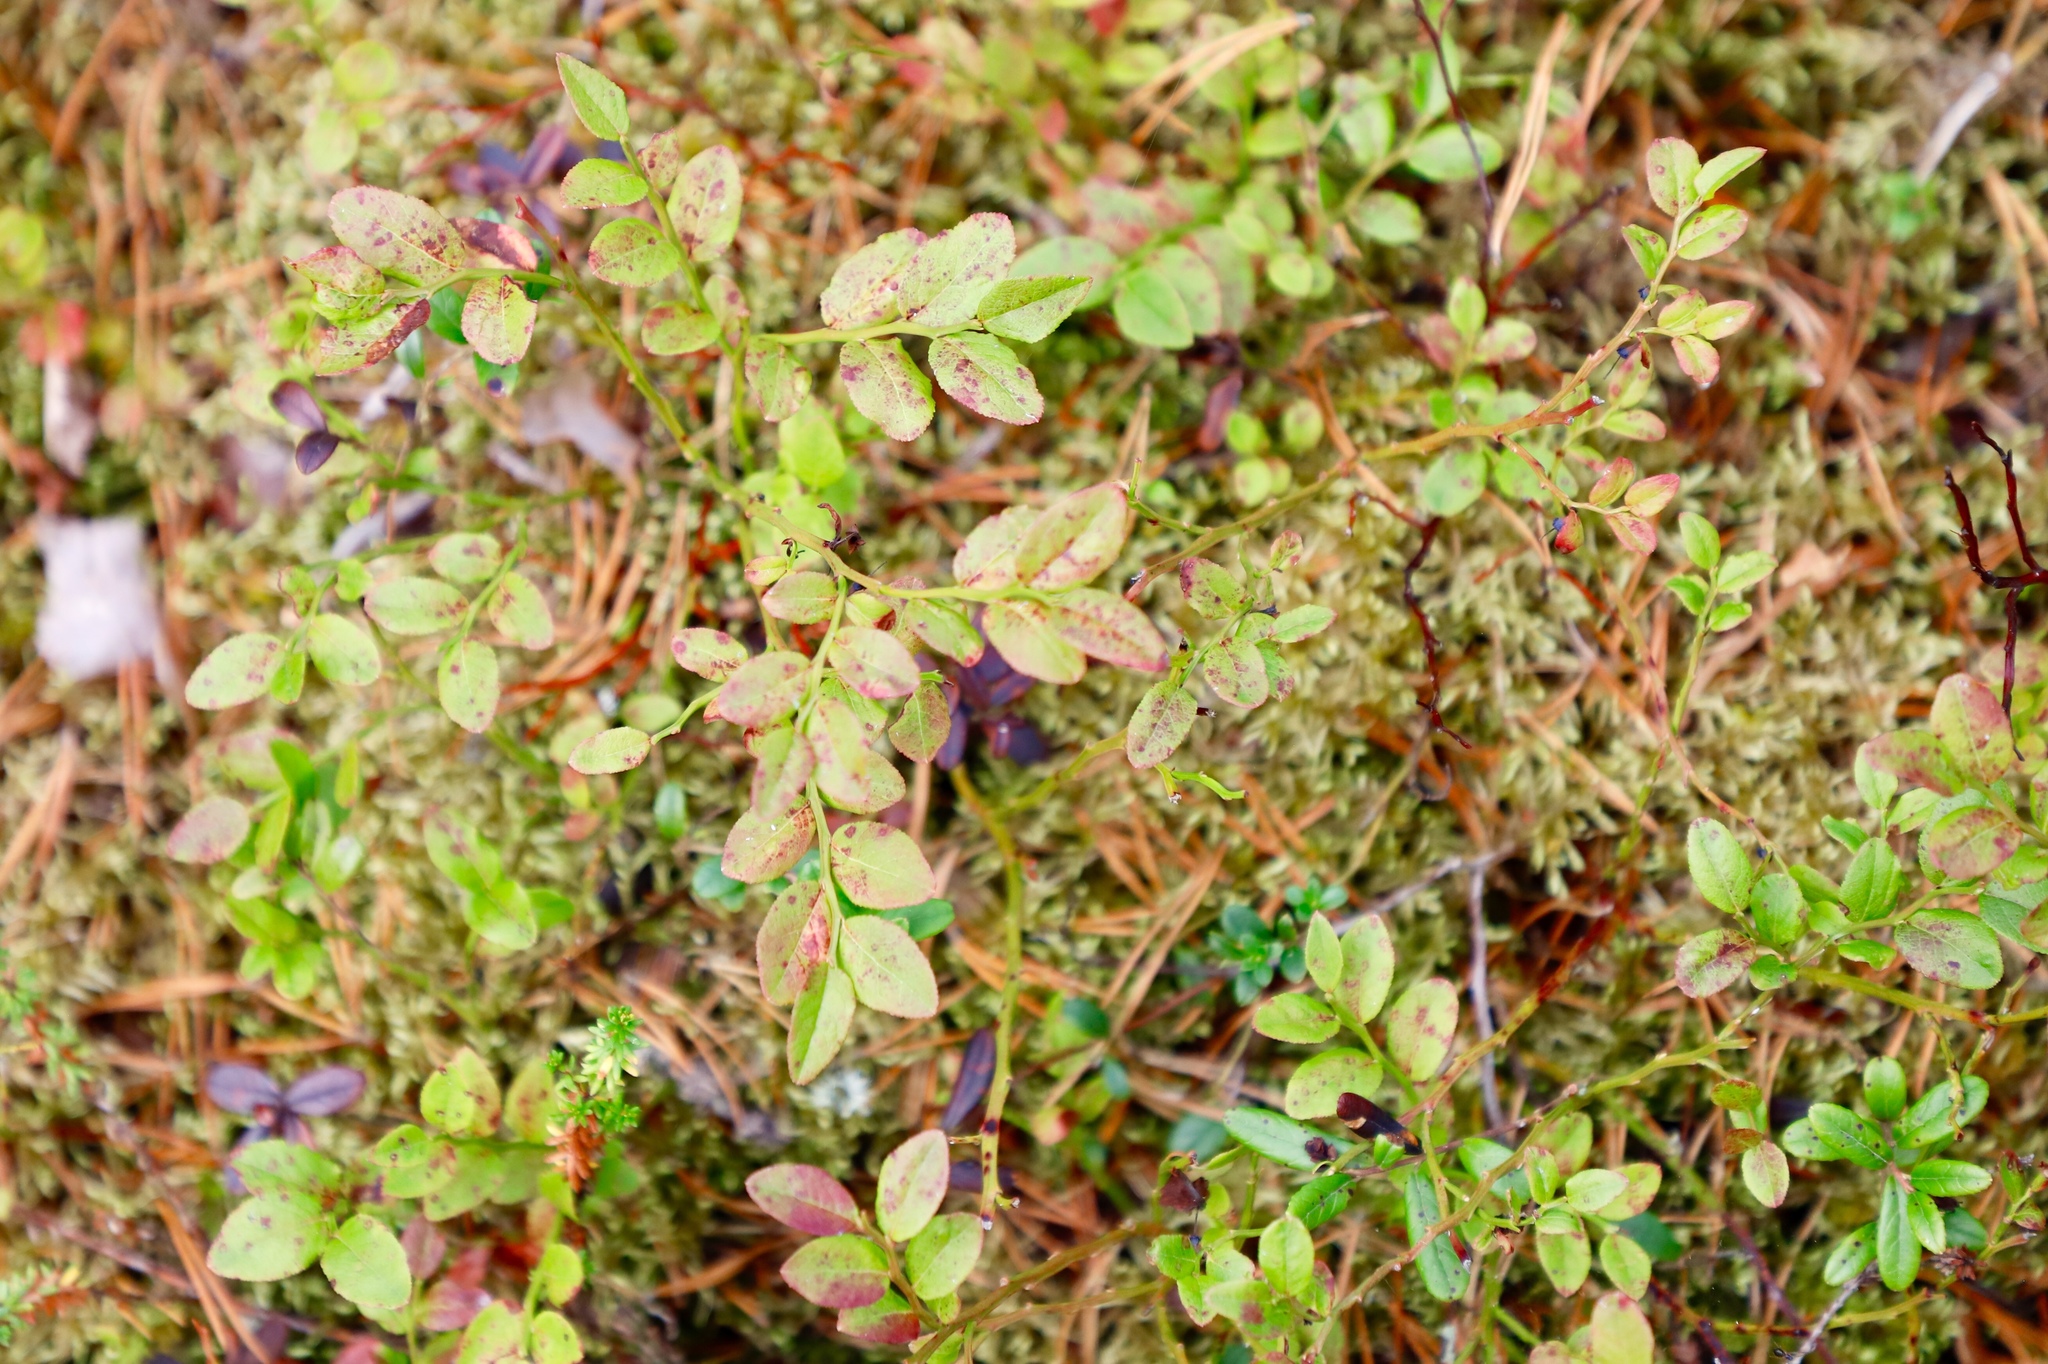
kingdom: Plantae
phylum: Tracheophyta
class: Magnoliopsida
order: Ericales
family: Ericaceae
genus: Vaccinium
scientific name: Vaccinium myrtillus
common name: Bilberry
